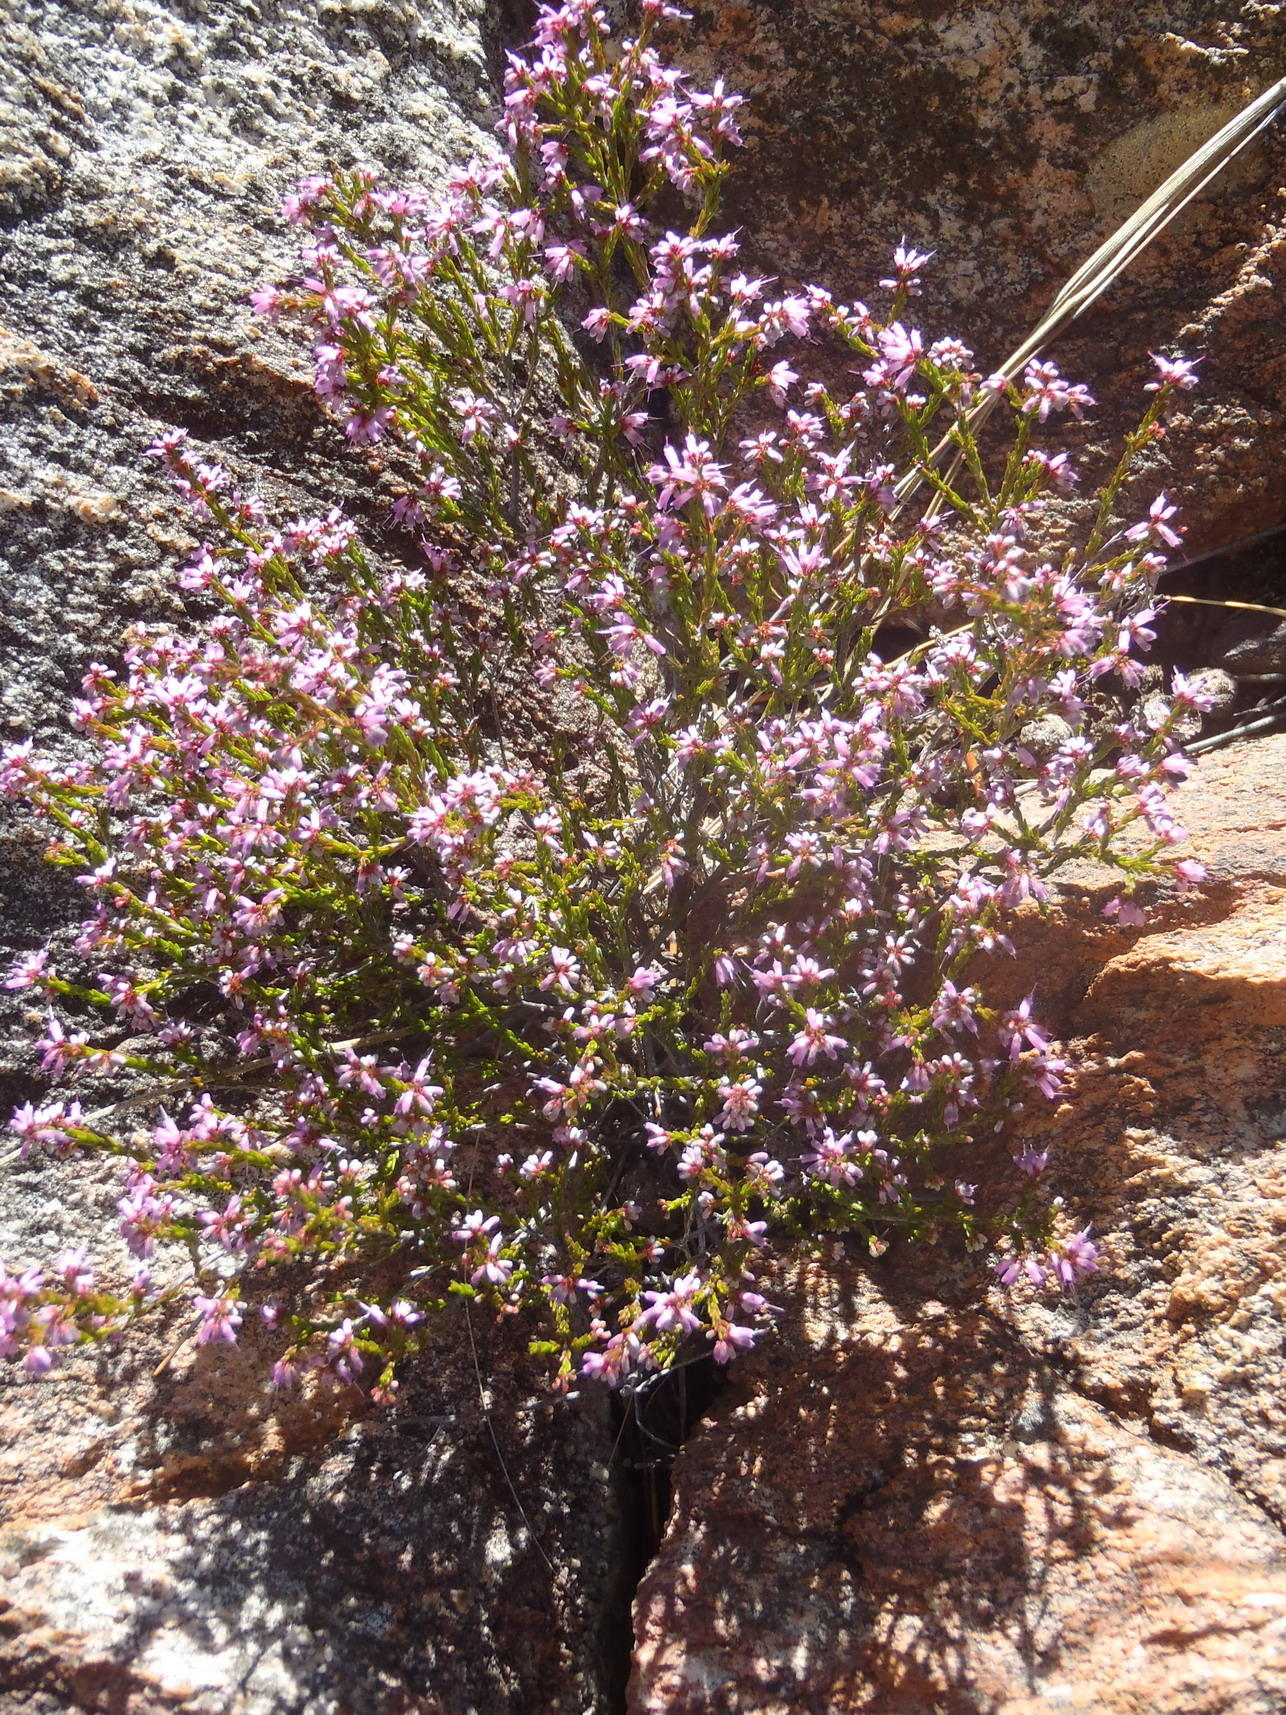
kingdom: Plantae
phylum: Tracheophyta
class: Magnoliopsida
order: Ericales
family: Ericaceae
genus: Erica
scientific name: Erica rosacea
